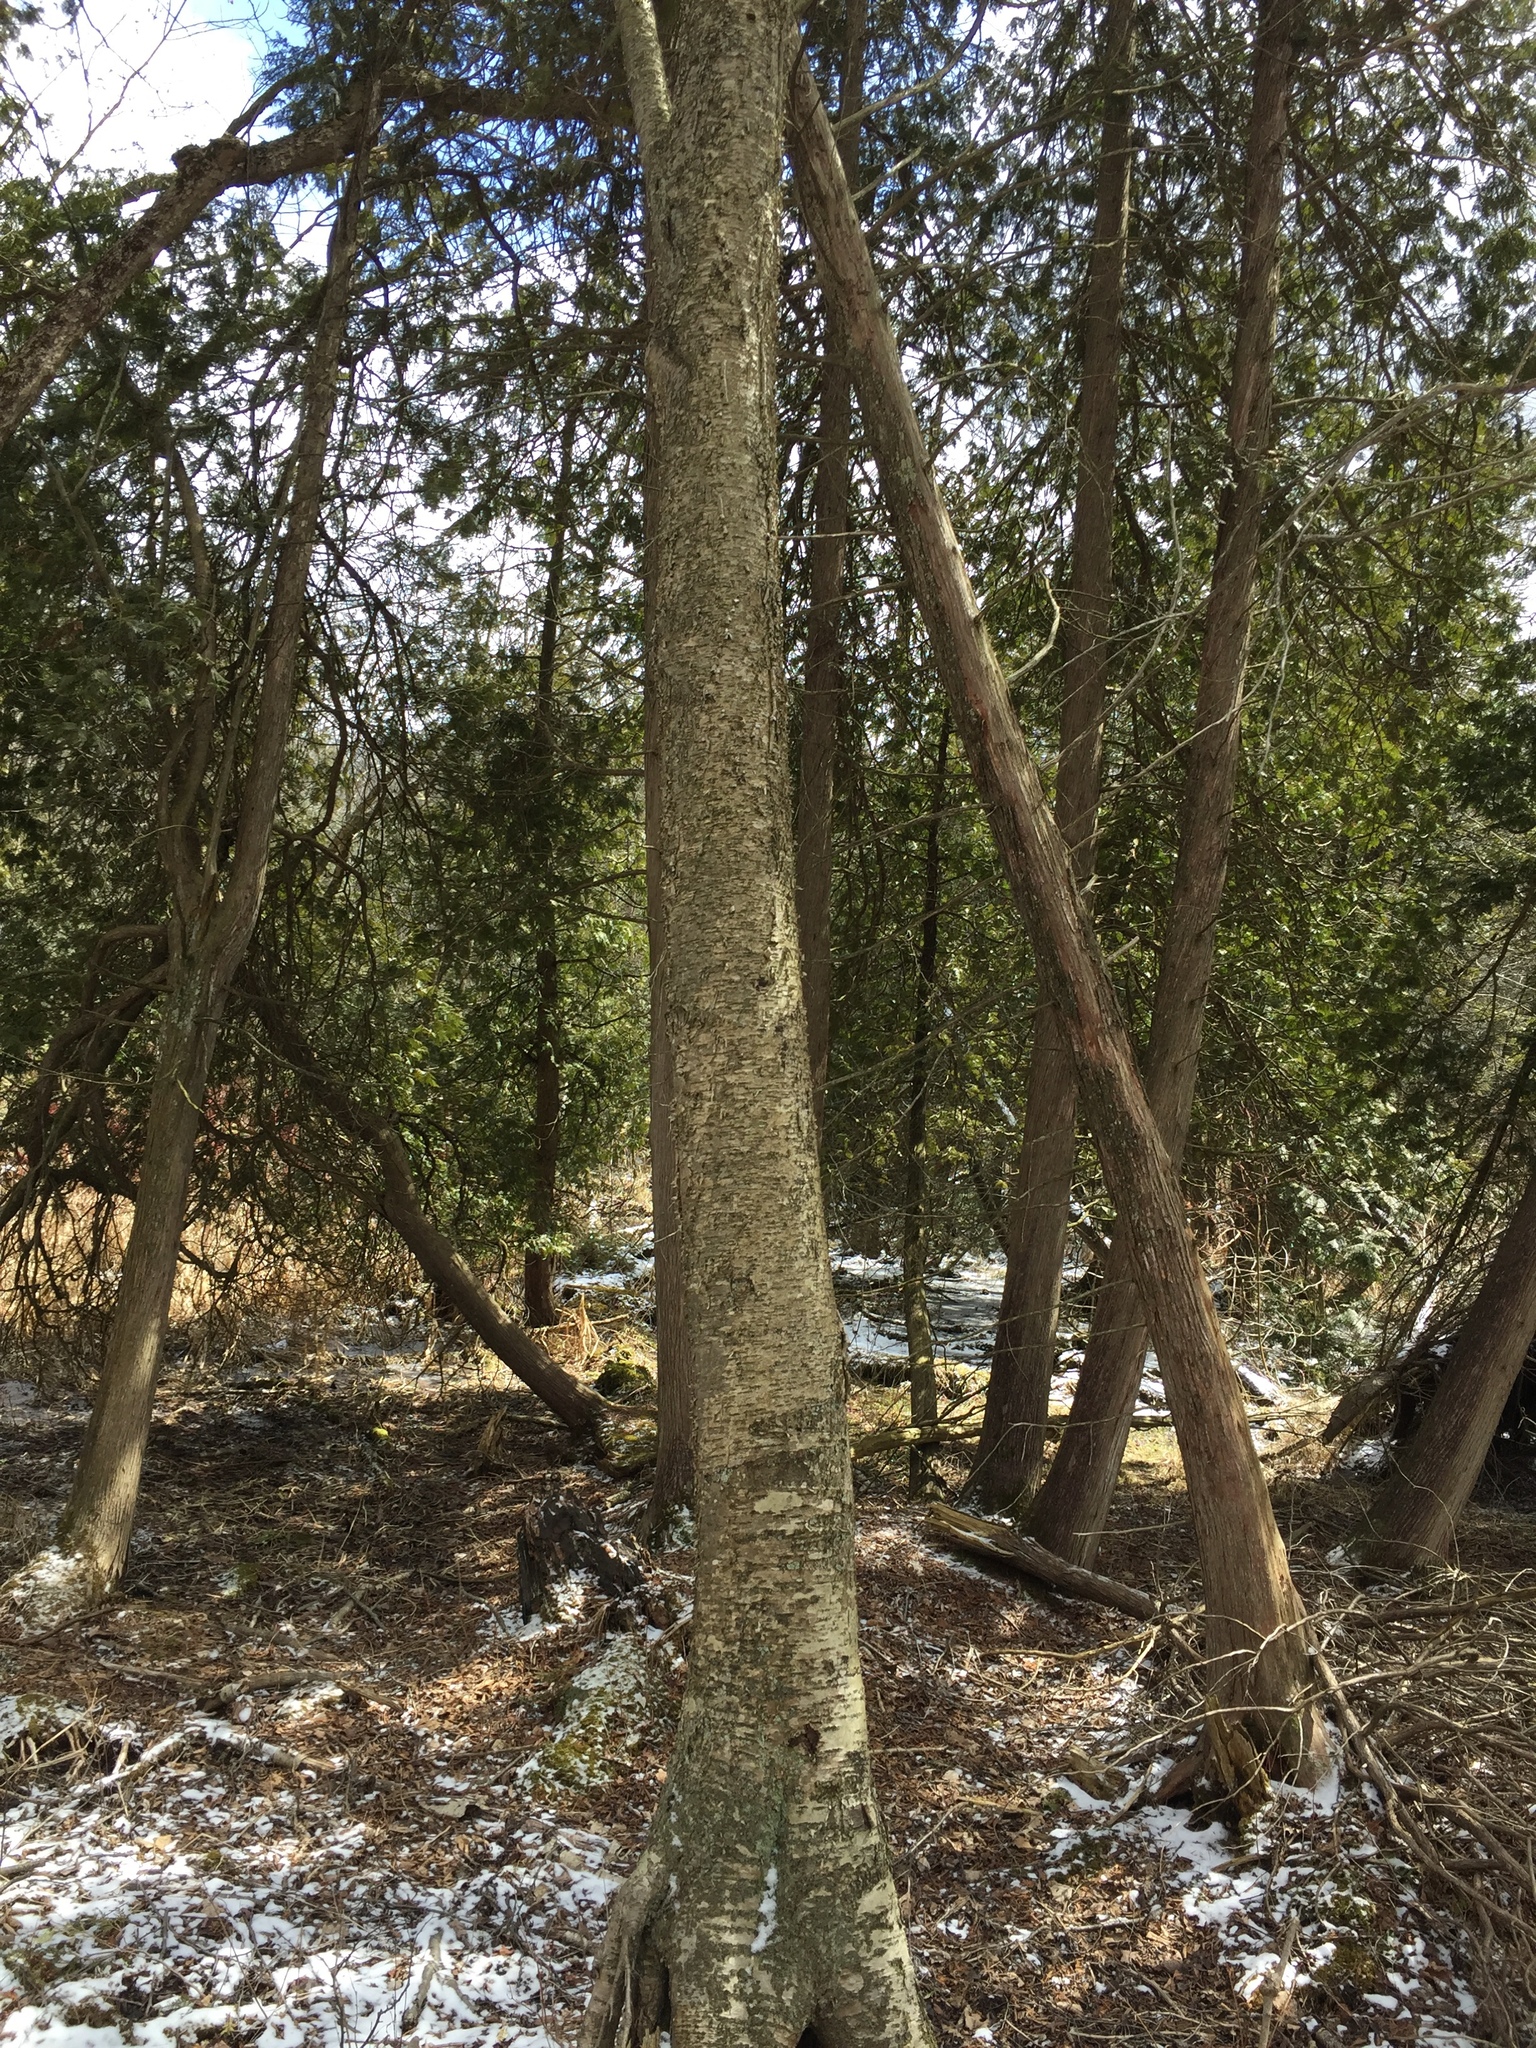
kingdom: Plantae
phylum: Tracheophyta
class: Magnoliopsida
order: Fagales
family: Betulaceae
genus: Betula
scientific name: Betula alleghaniensis
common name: Yellow birch
